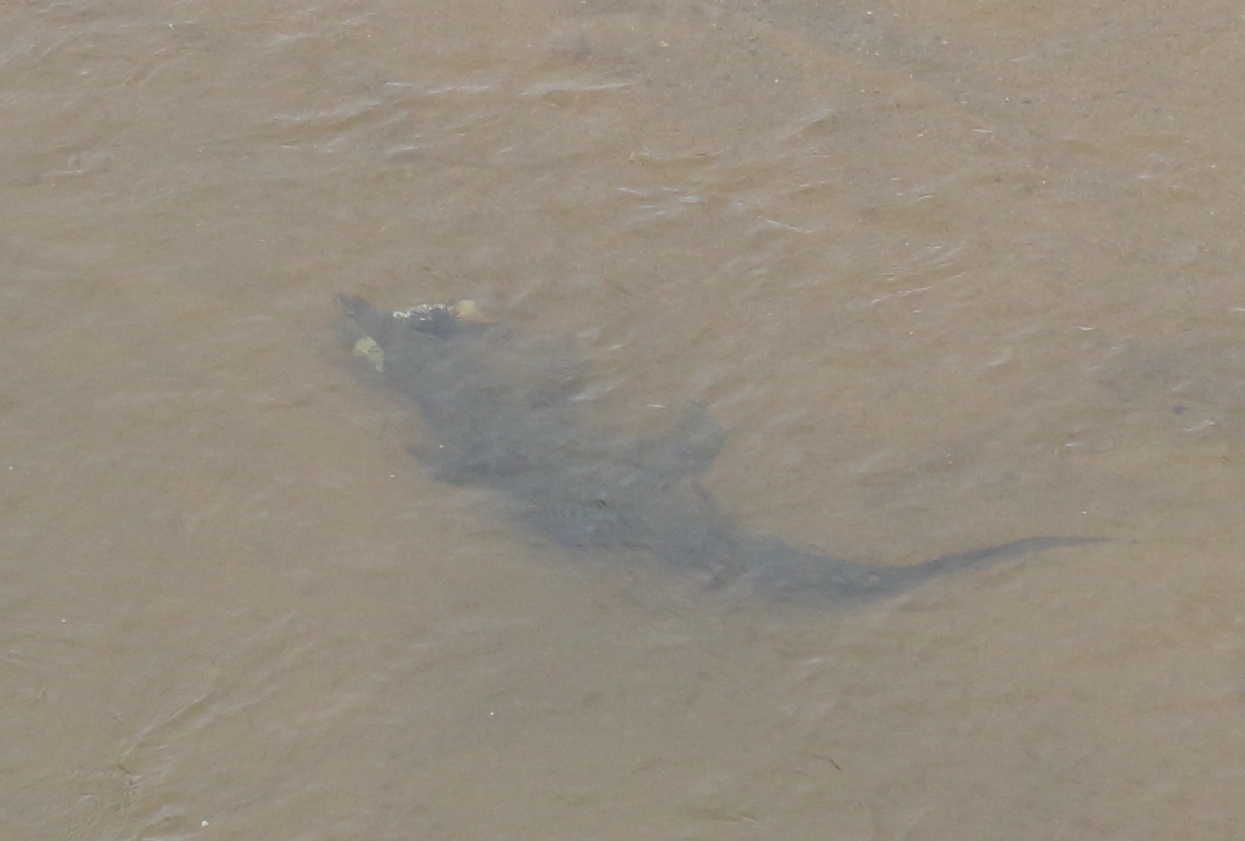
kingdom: Animalia
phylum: Chordata
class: Crocodylia
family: Crocodylidae
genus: Crocodylus
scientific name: Crocodylus niloticus
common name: Nile crocodile
